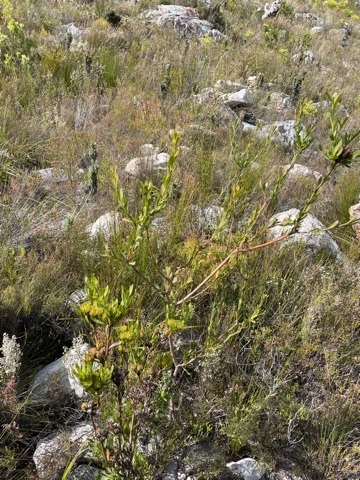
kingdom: Plantae
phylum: Tracheophyta
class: Magnoliopsida
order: Proteales
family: Proteaceae
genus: Aulax
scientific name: Aulax umbellata
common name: Broad-leaf featherbush
